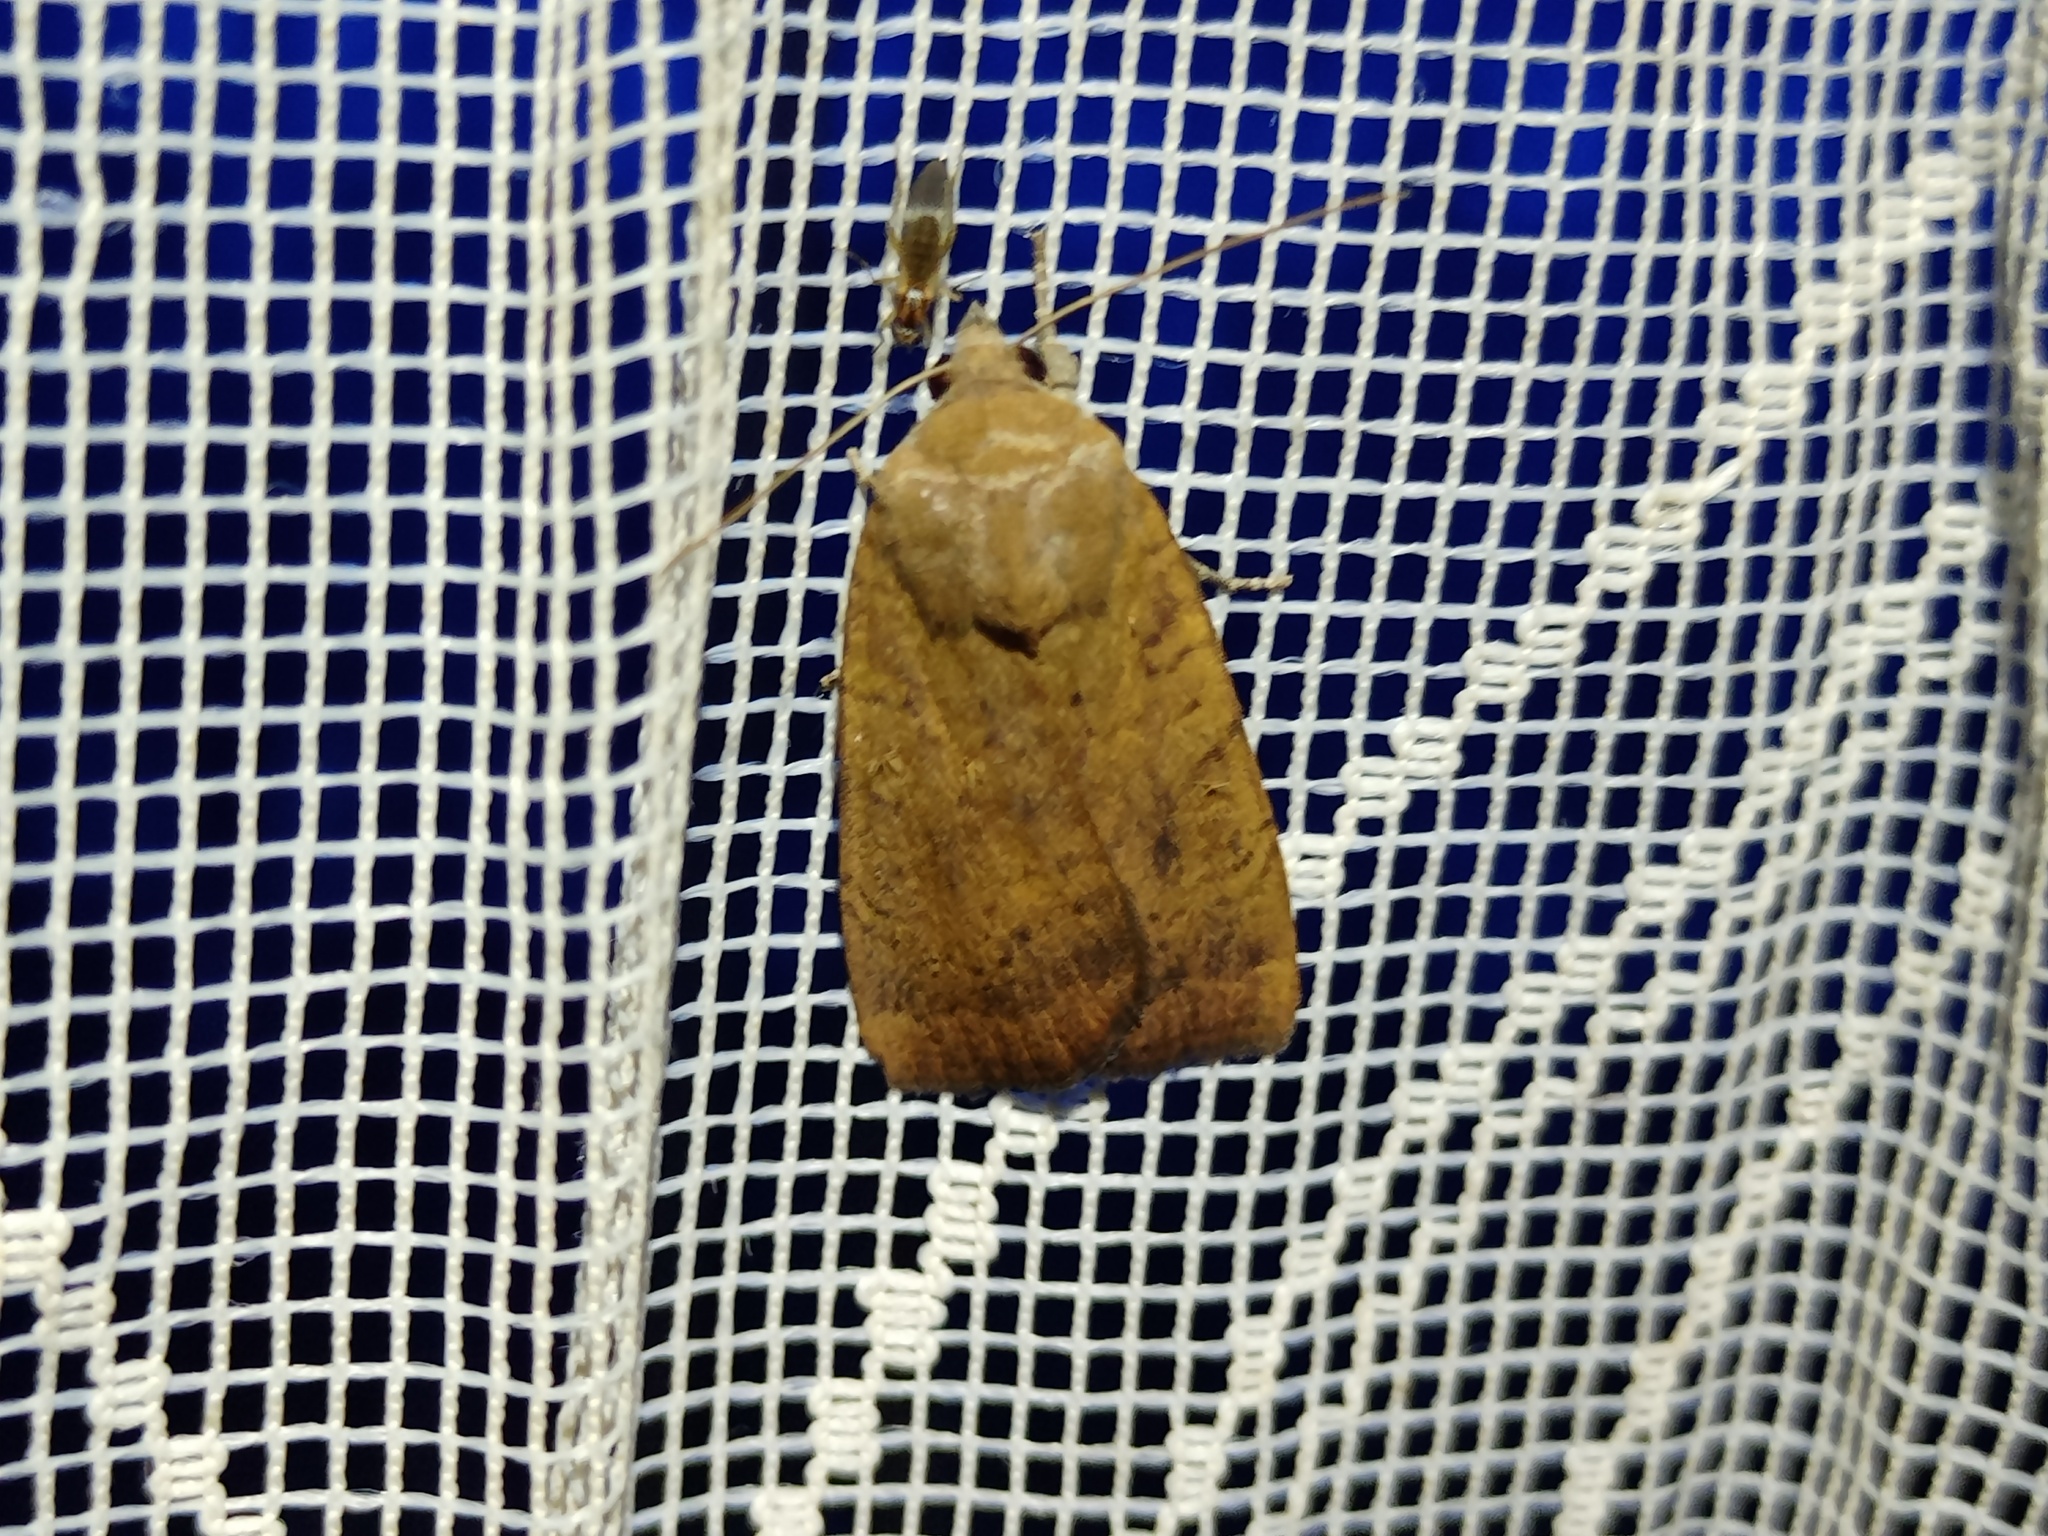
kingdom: Animalia
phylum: Arthropoda
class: Insecta
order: Lepidoptera
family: Noctuidae
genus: Noctua
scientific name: Noctua interjecta
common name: Least yellow underwing
